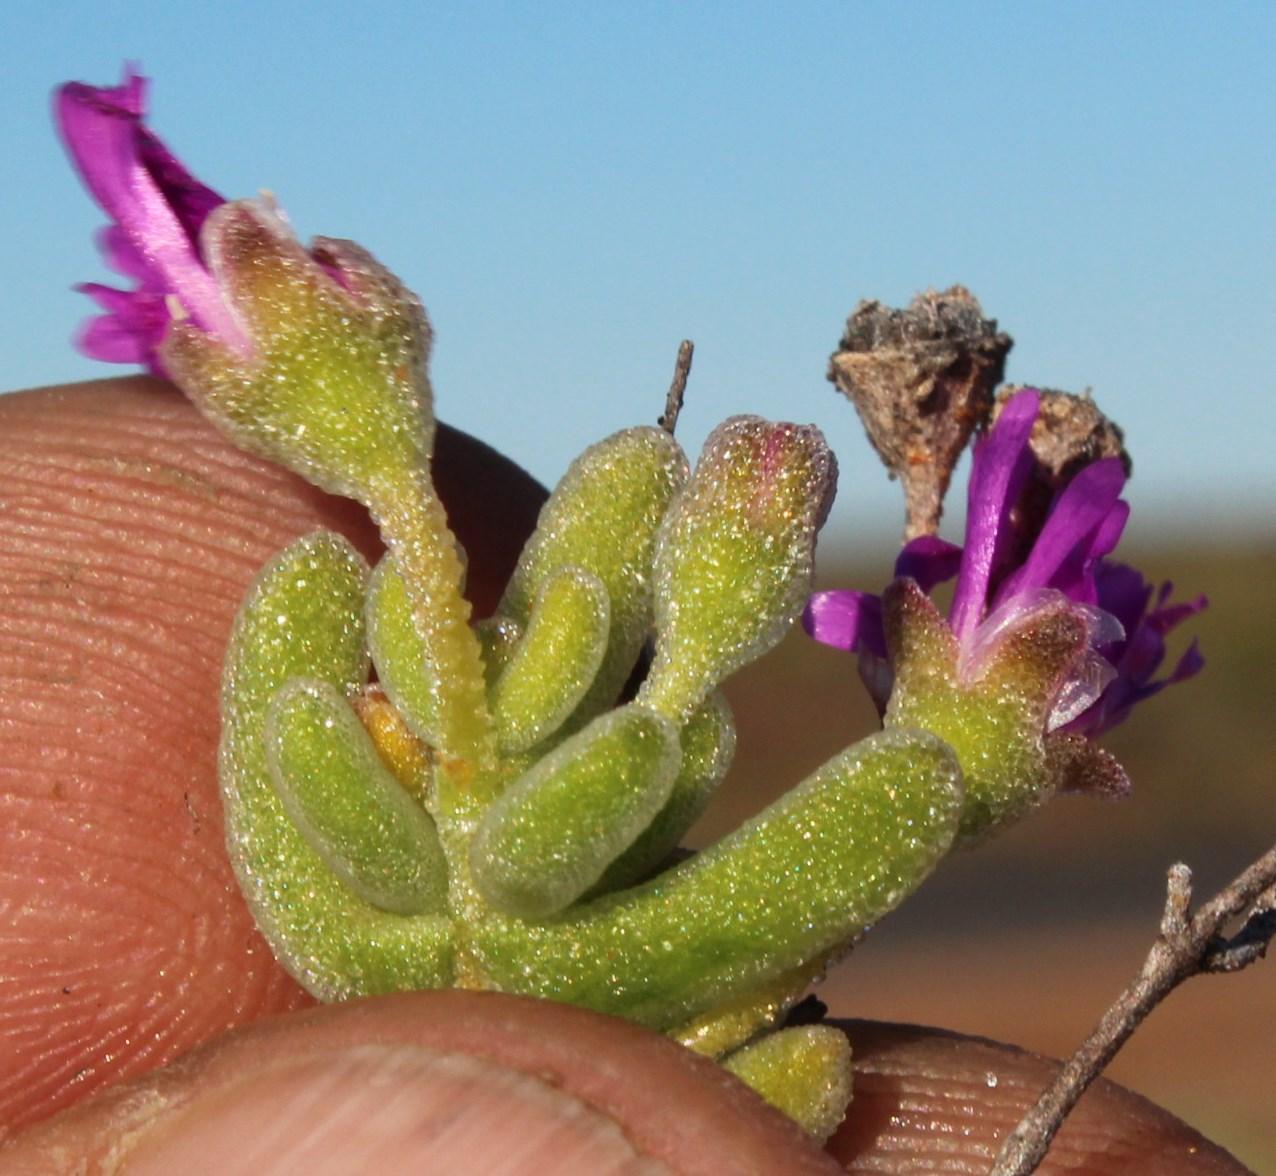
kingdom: Plantae
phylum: Tracheophyta
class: Magnoliopsida
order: Caryophyllales
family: Aizoaceae
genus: Drosanthemum
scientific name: Drosanthemum oculatum
